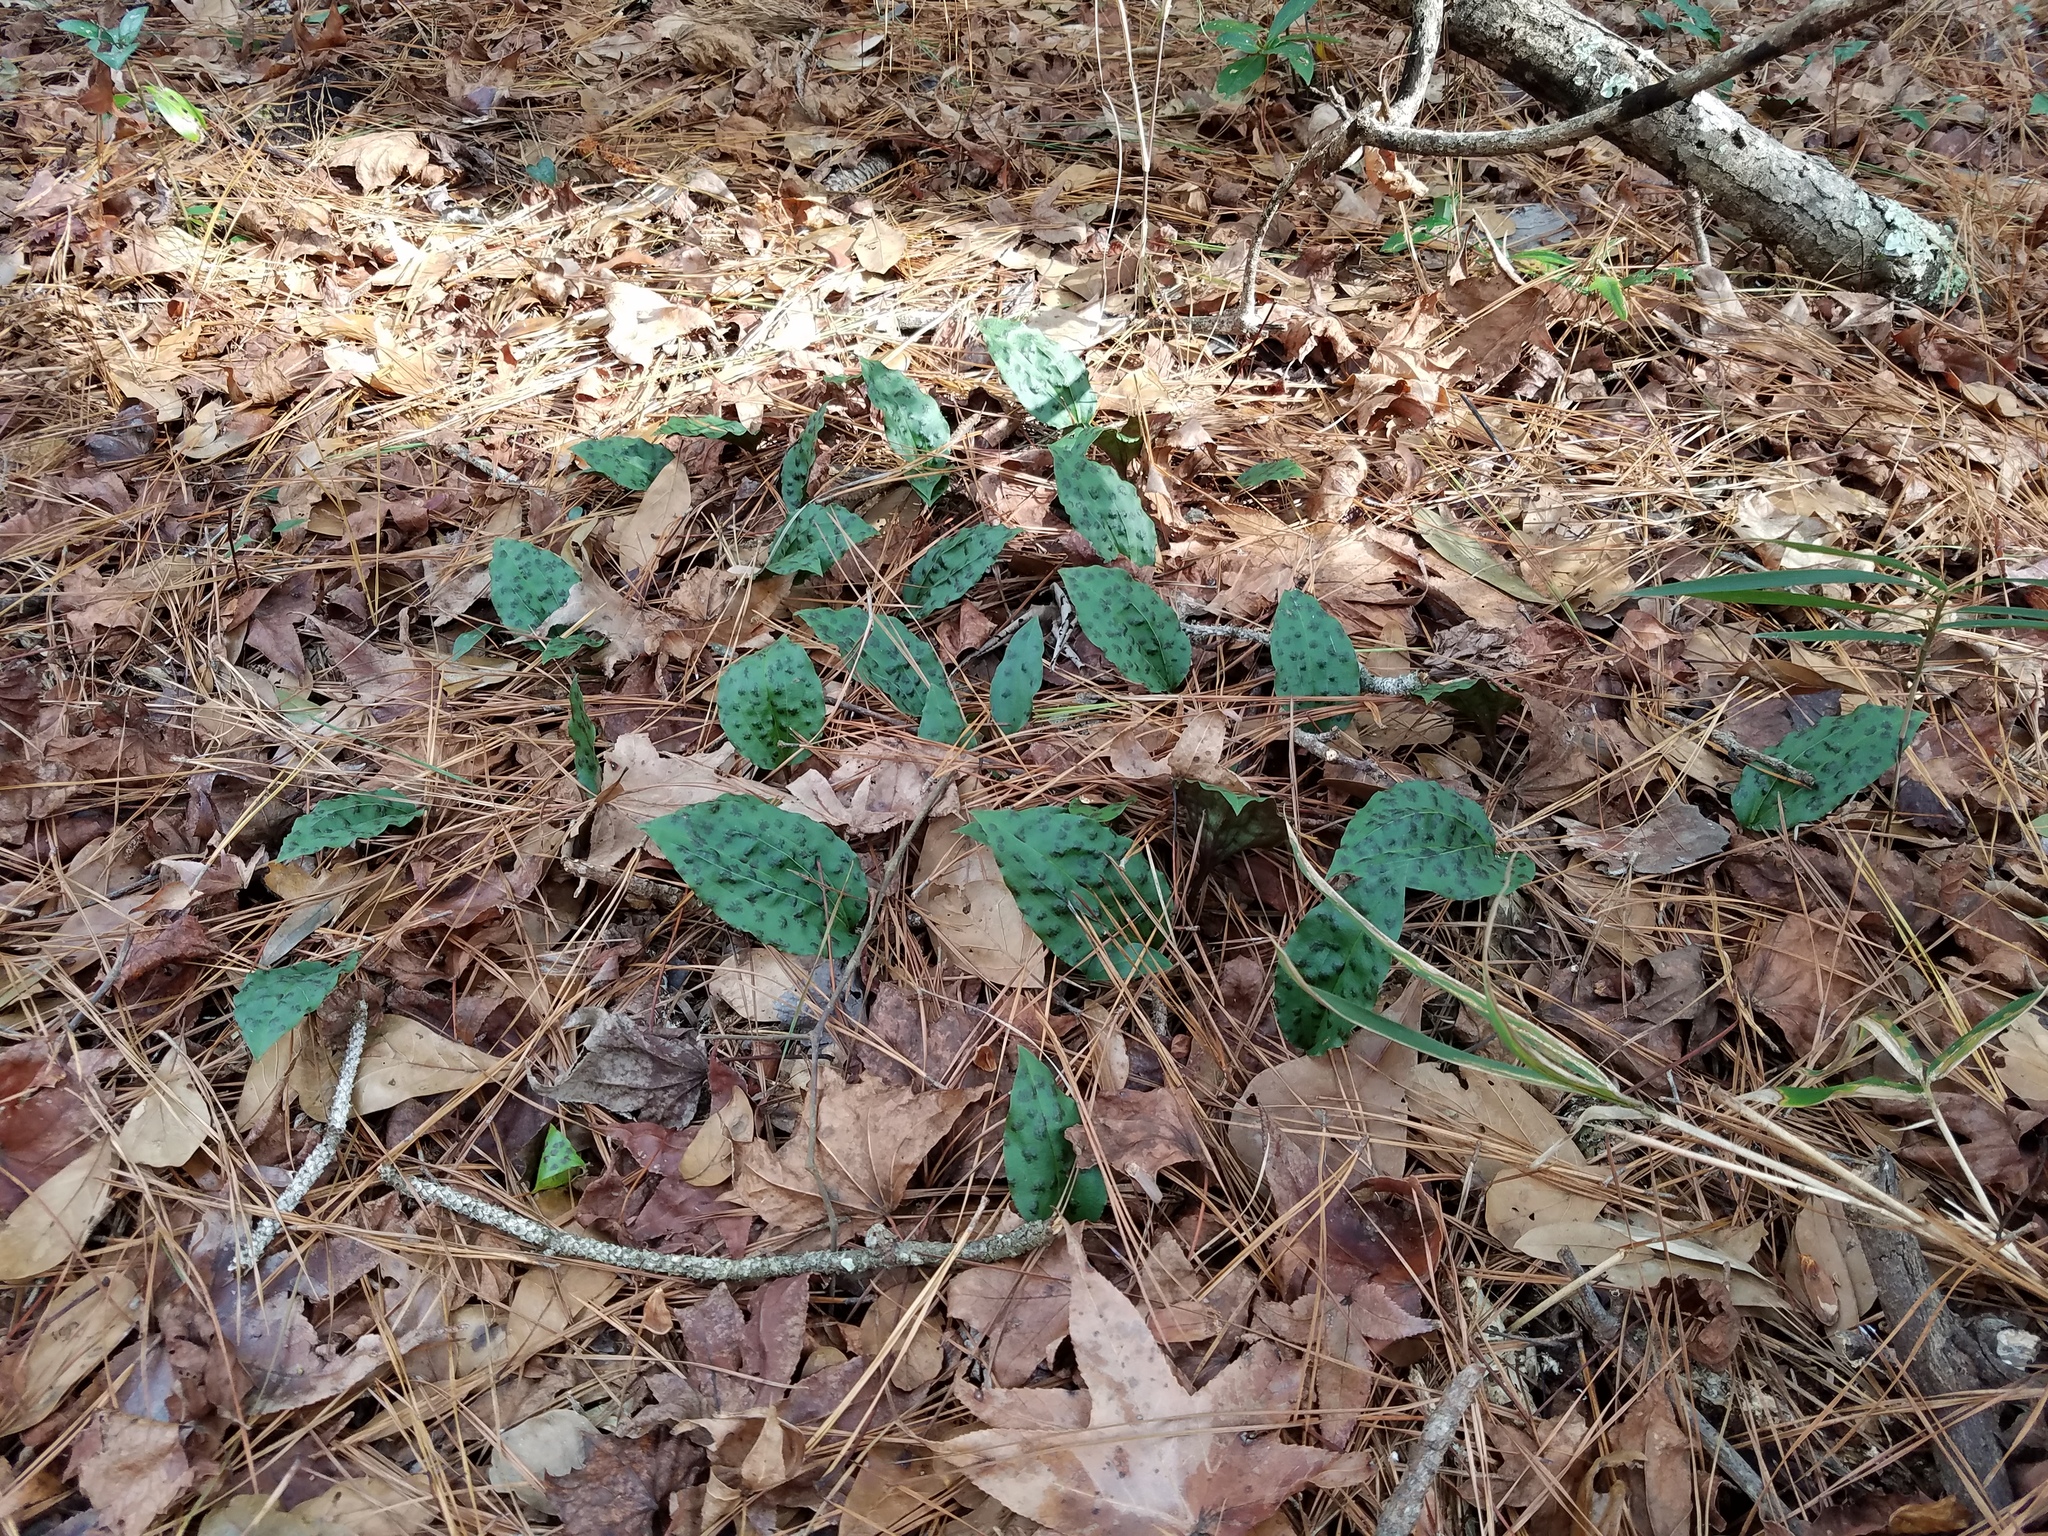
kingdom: Plantae
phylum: Tracheophyta
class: Liliopsida
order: Asparagales
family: Orchidaceae
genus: Tipularia
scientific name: Tipularia discolor
